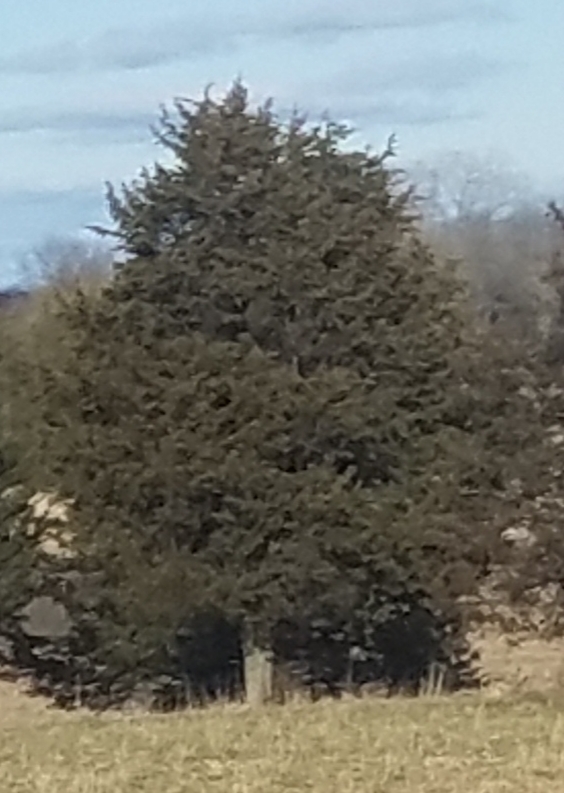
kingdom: Plantae
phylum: Tracheophyta
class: Pinopsida
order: Pinales
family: Cupressaceae
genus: Juniperus
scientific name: Juniperus virginiana
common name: Red juniper
